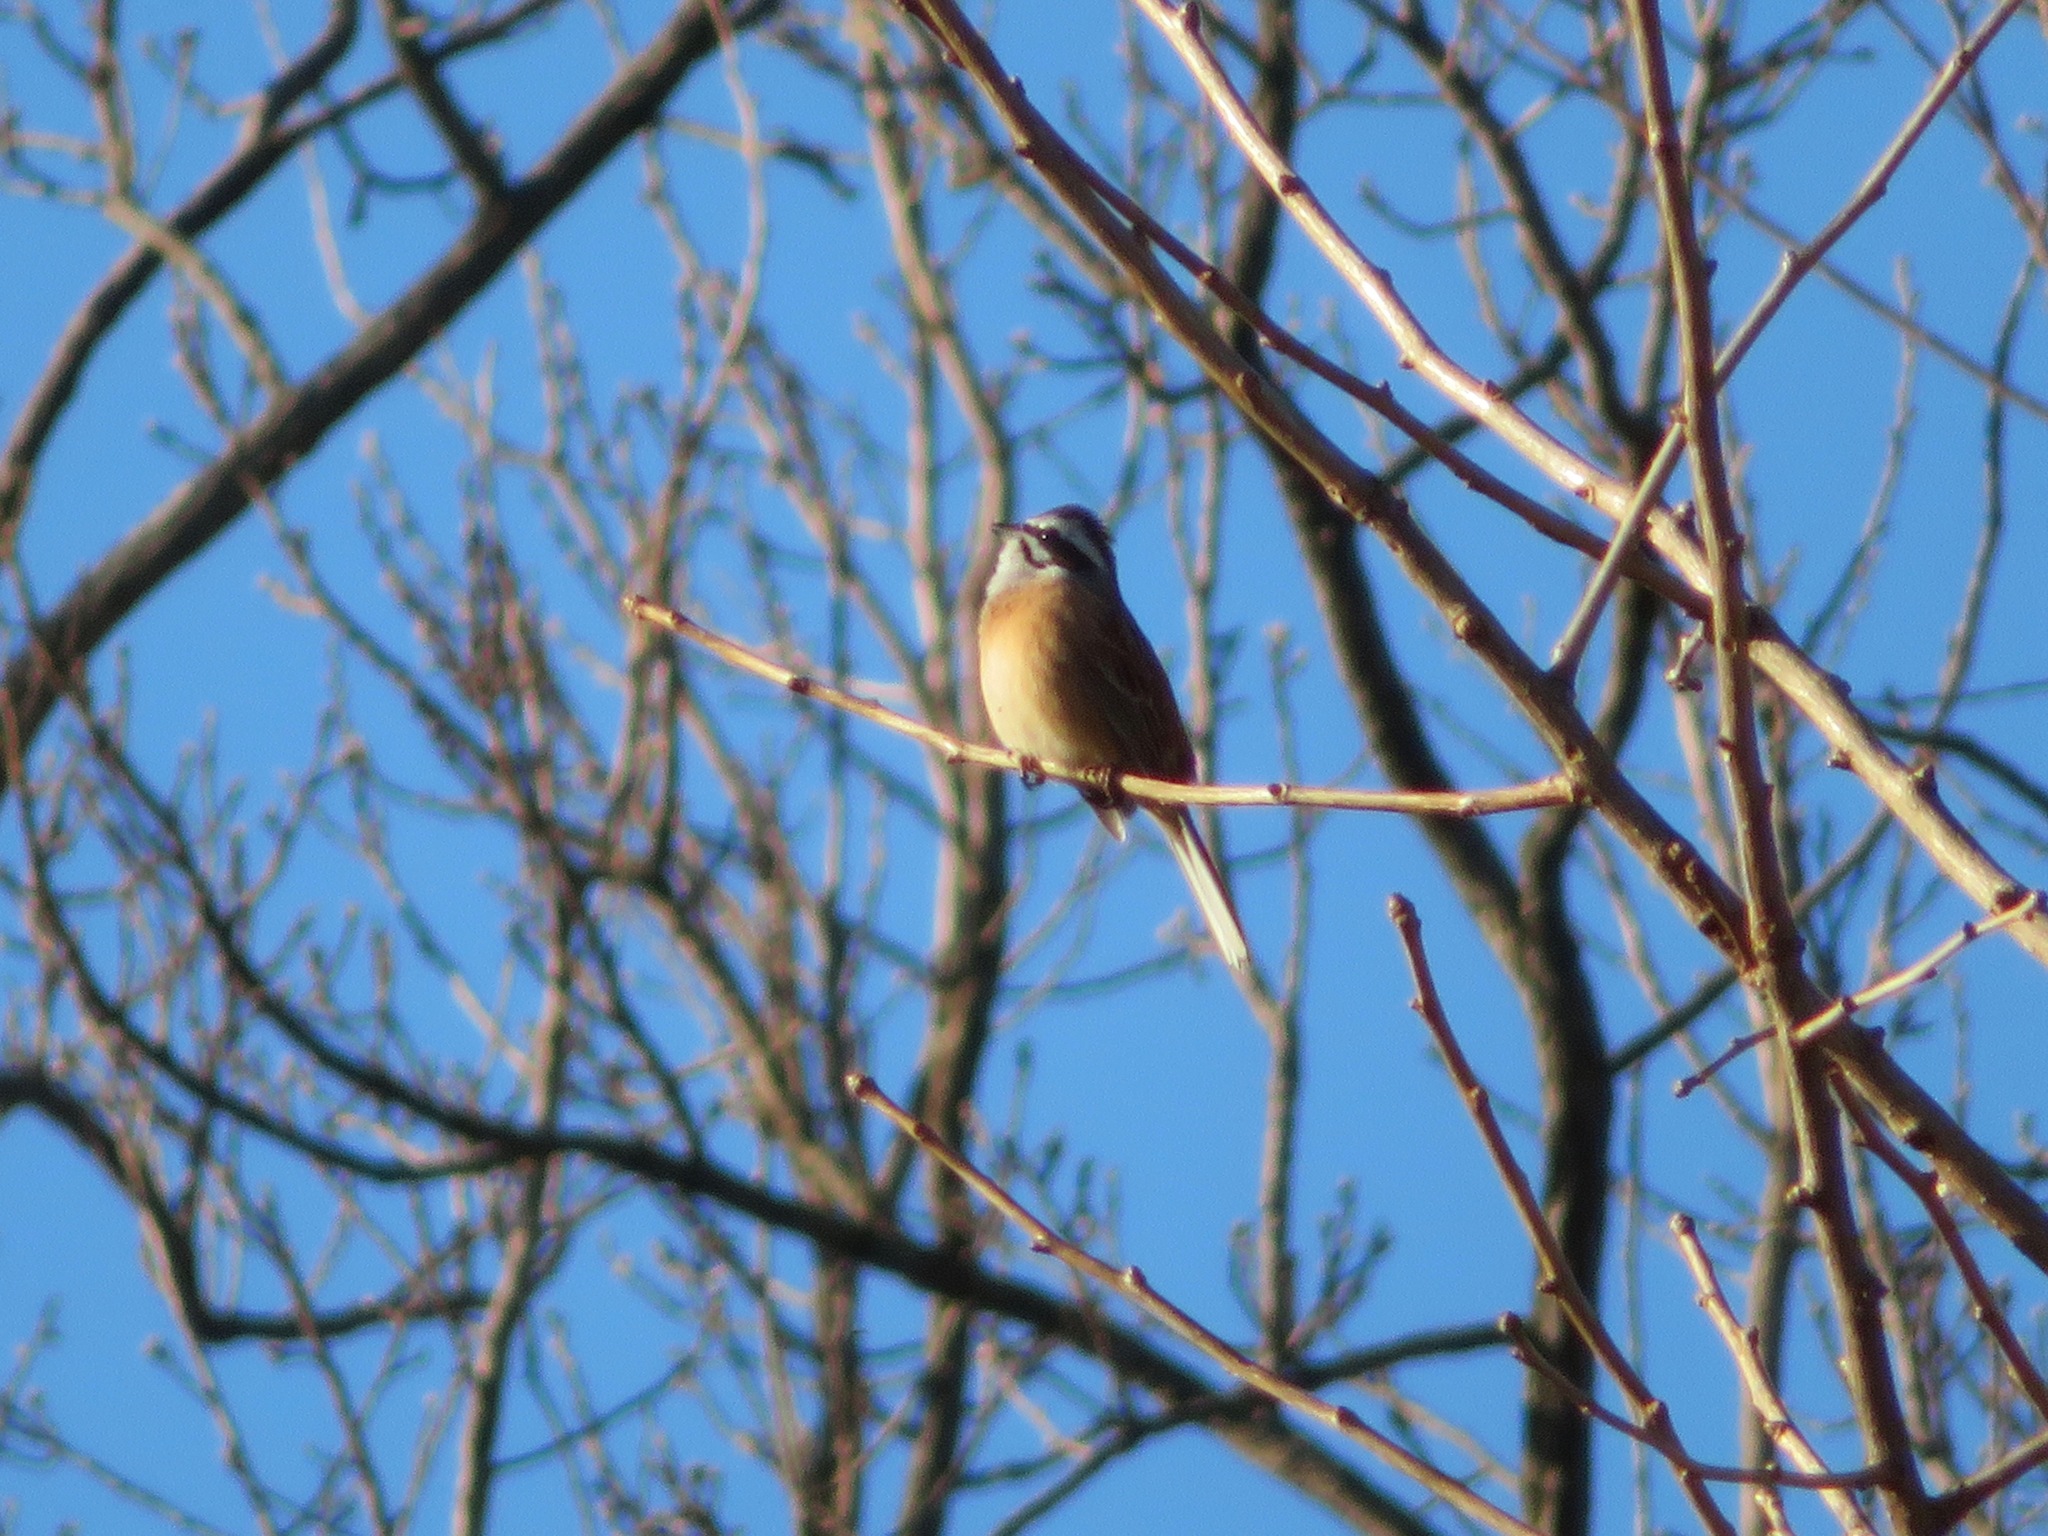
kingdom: Animalia
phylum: Chordata
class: Aves
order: Passeriformes
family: Emberizidae
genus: Emberiza
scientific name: Emberiza cioides
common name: Meadow bunting
